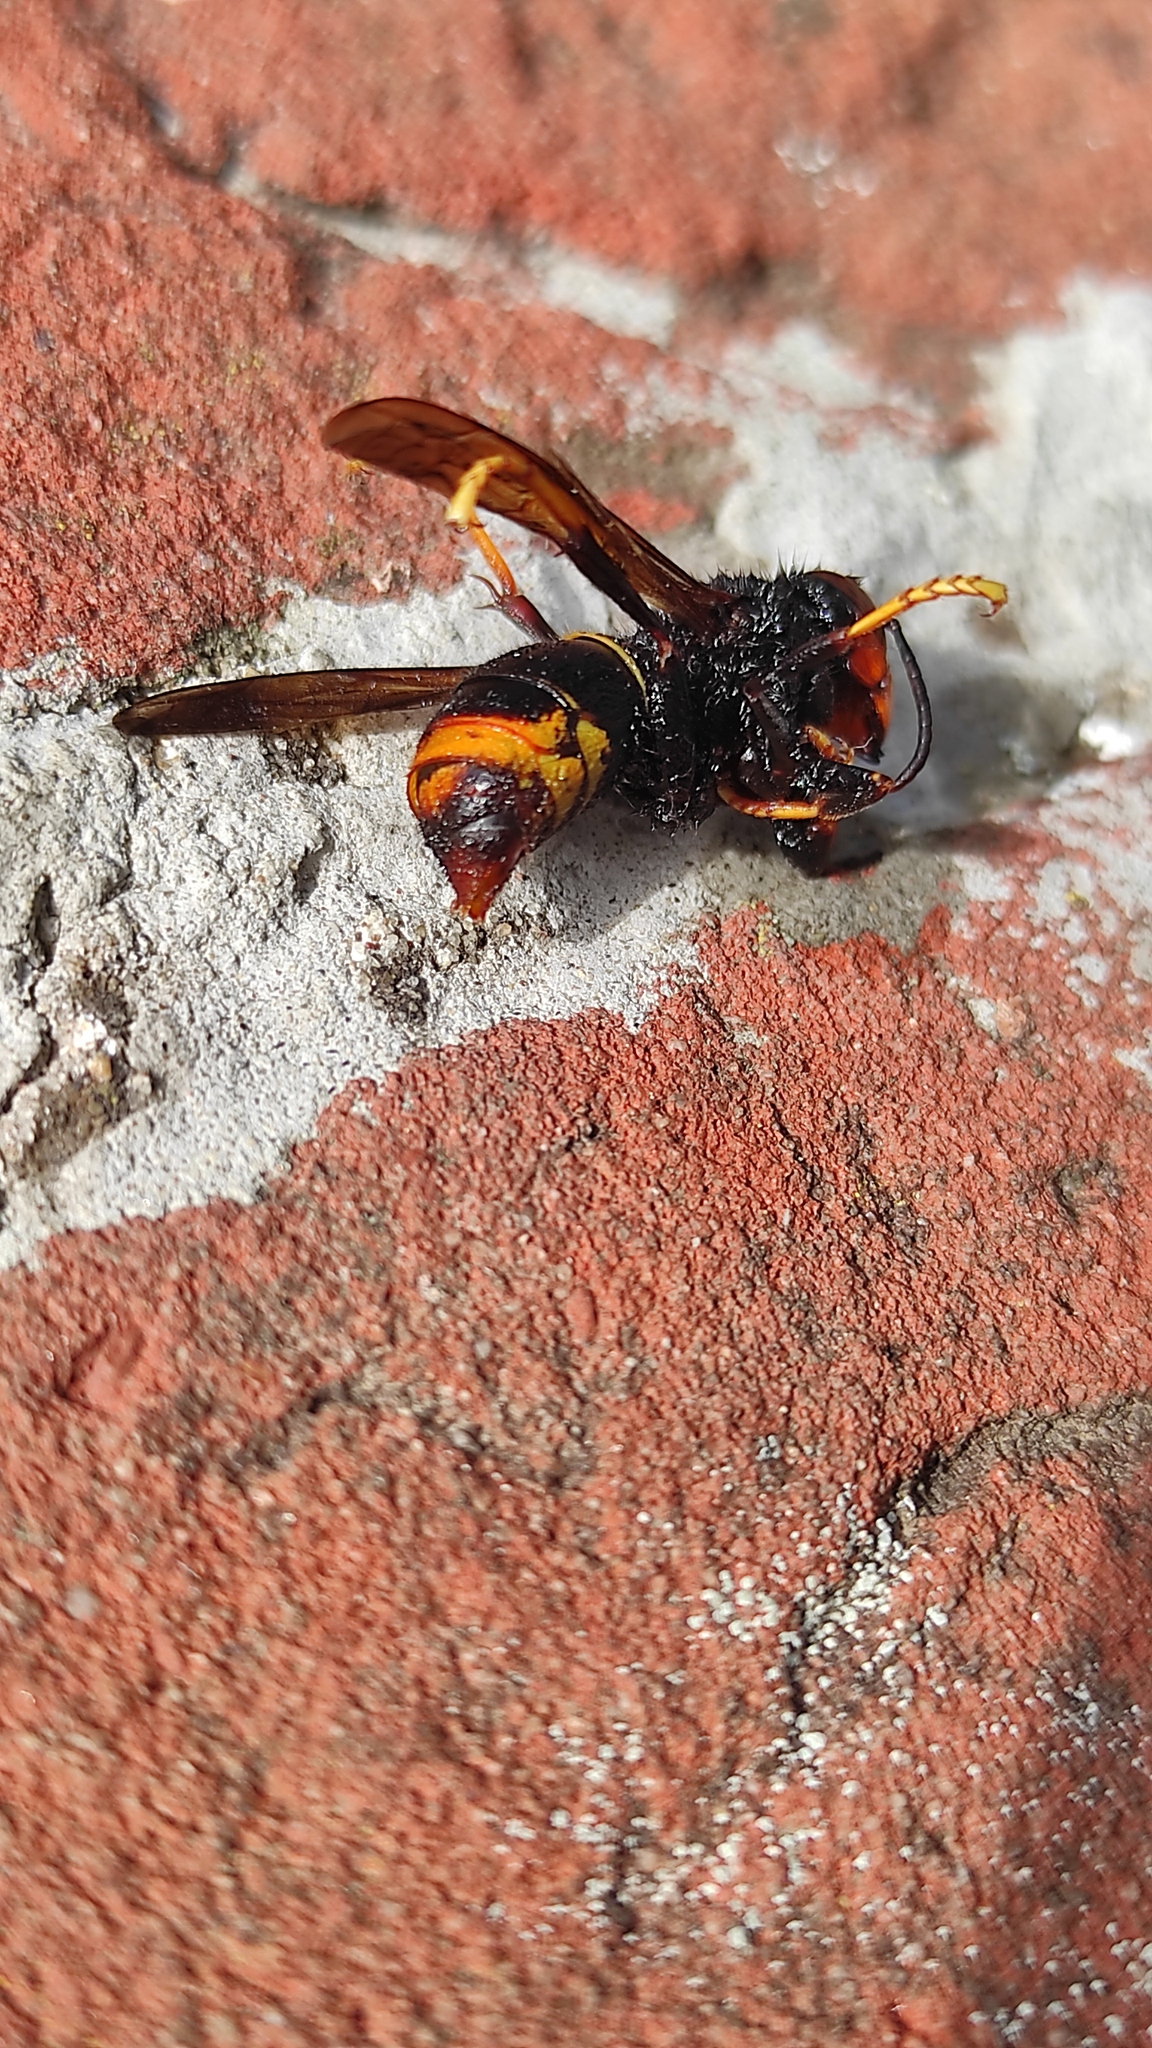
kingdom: Animalia
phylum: Arthropoda
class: Insecta
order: Hymenoptera
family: Vespidae
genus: Vespa
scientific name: Vespa velutina
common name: Asian hornet
